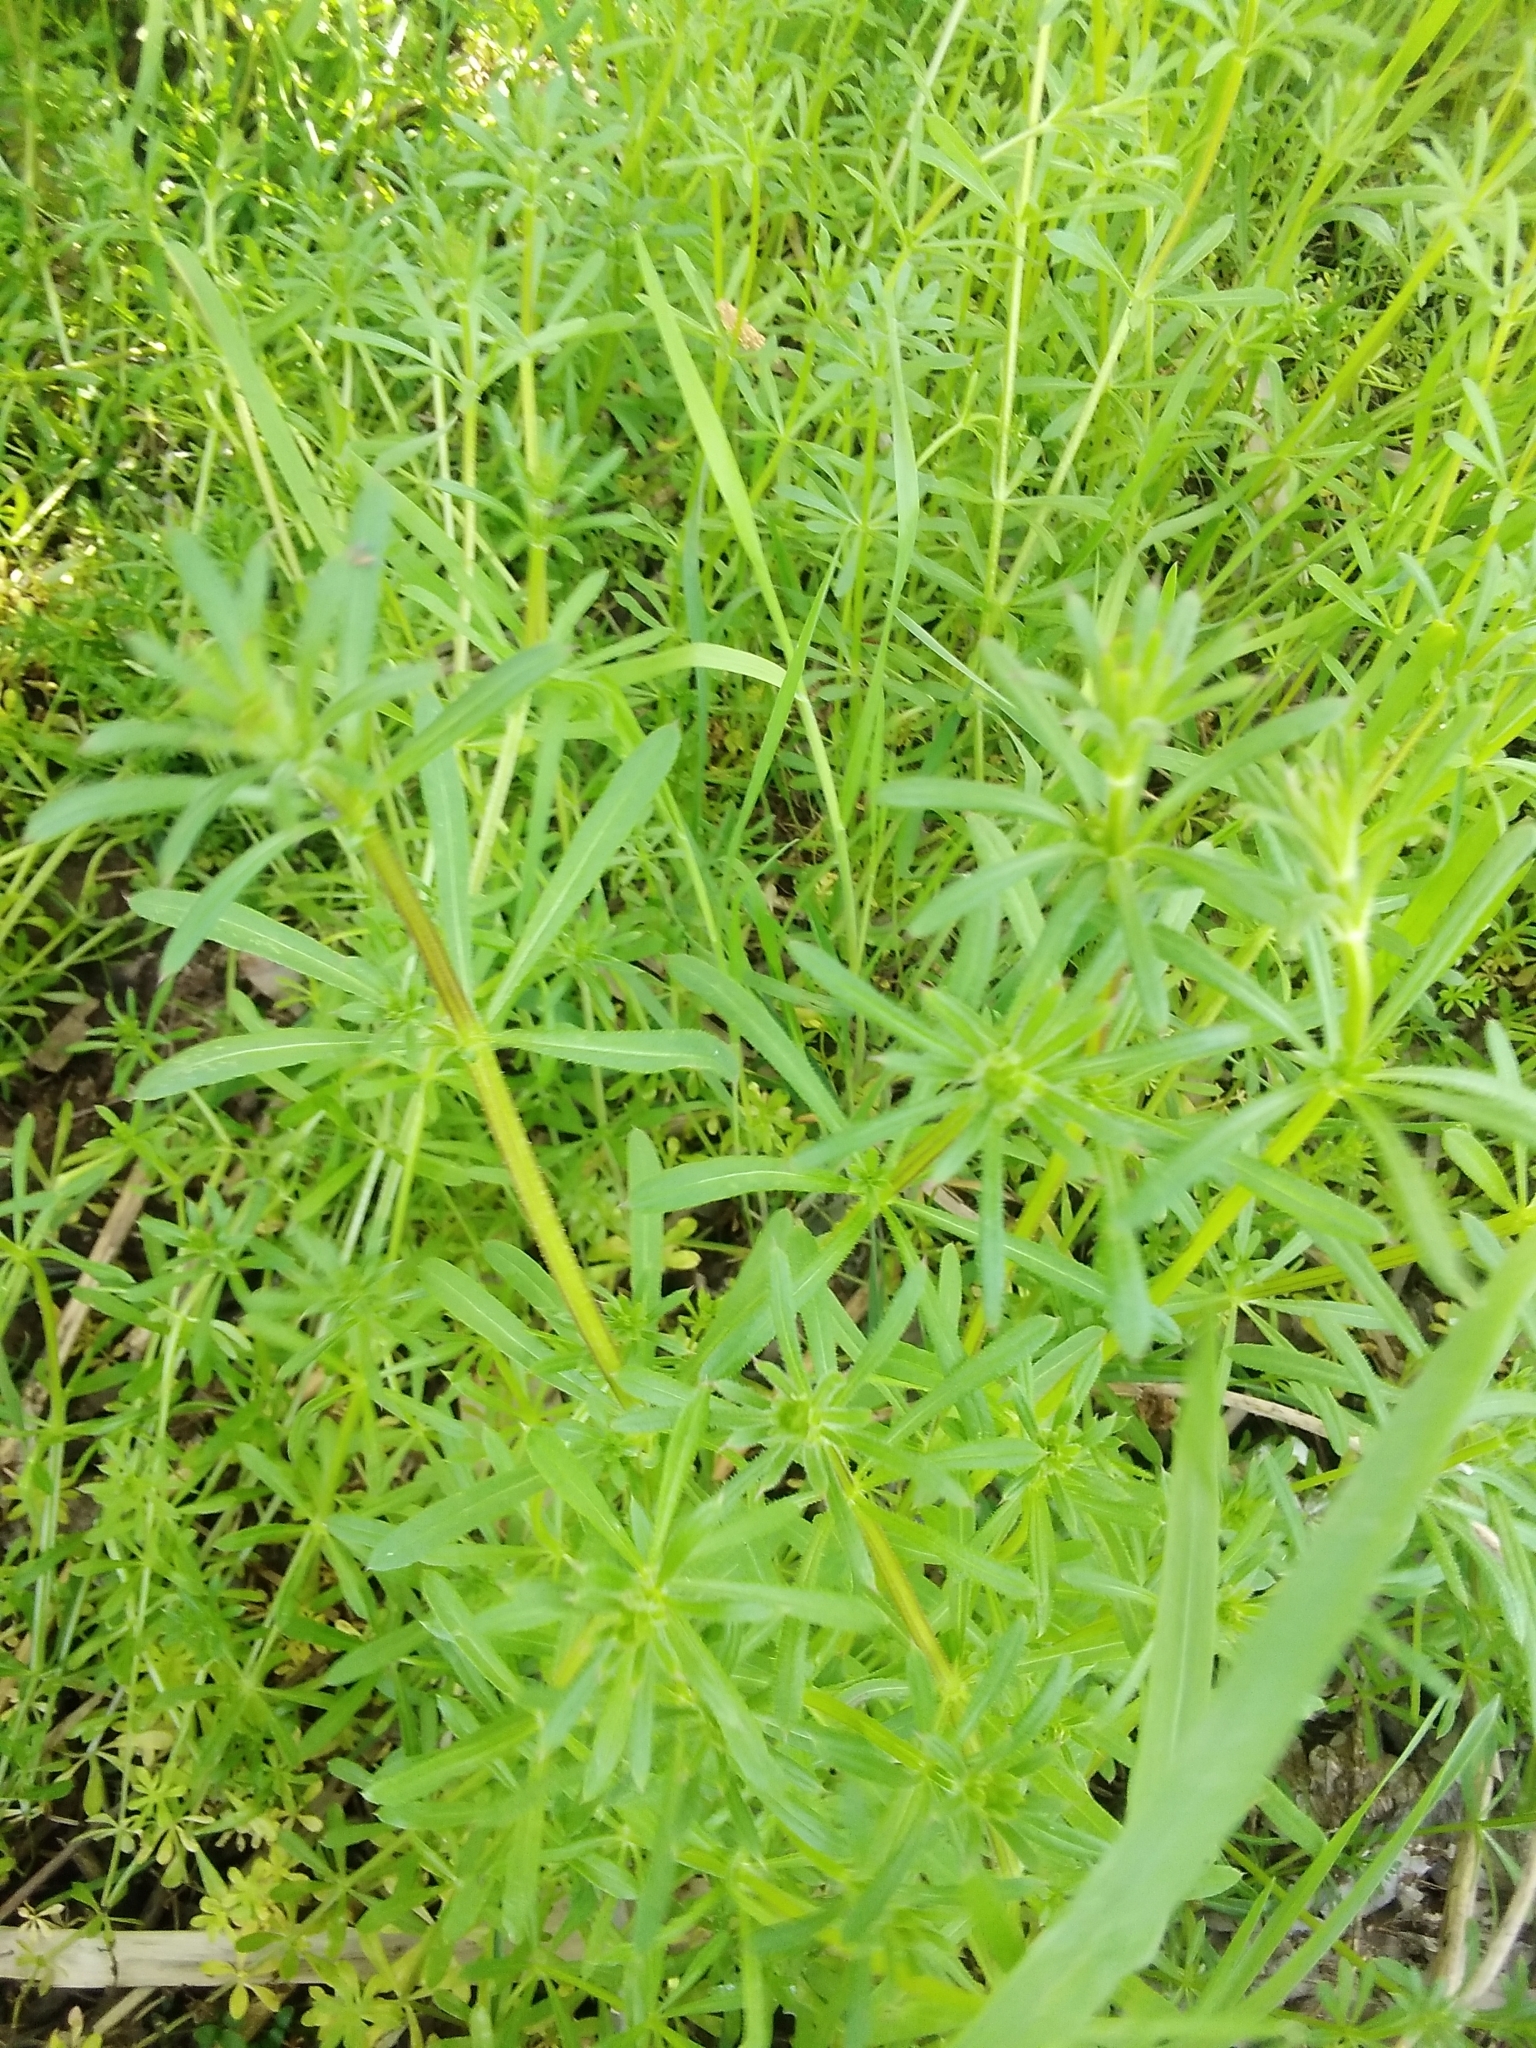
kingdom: Plantae
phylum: Tracheophyta
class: Magnoliopsida
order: Gentianales
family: Rubiaceae
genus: Galium
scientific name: Galium aparine
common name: Cleavers
